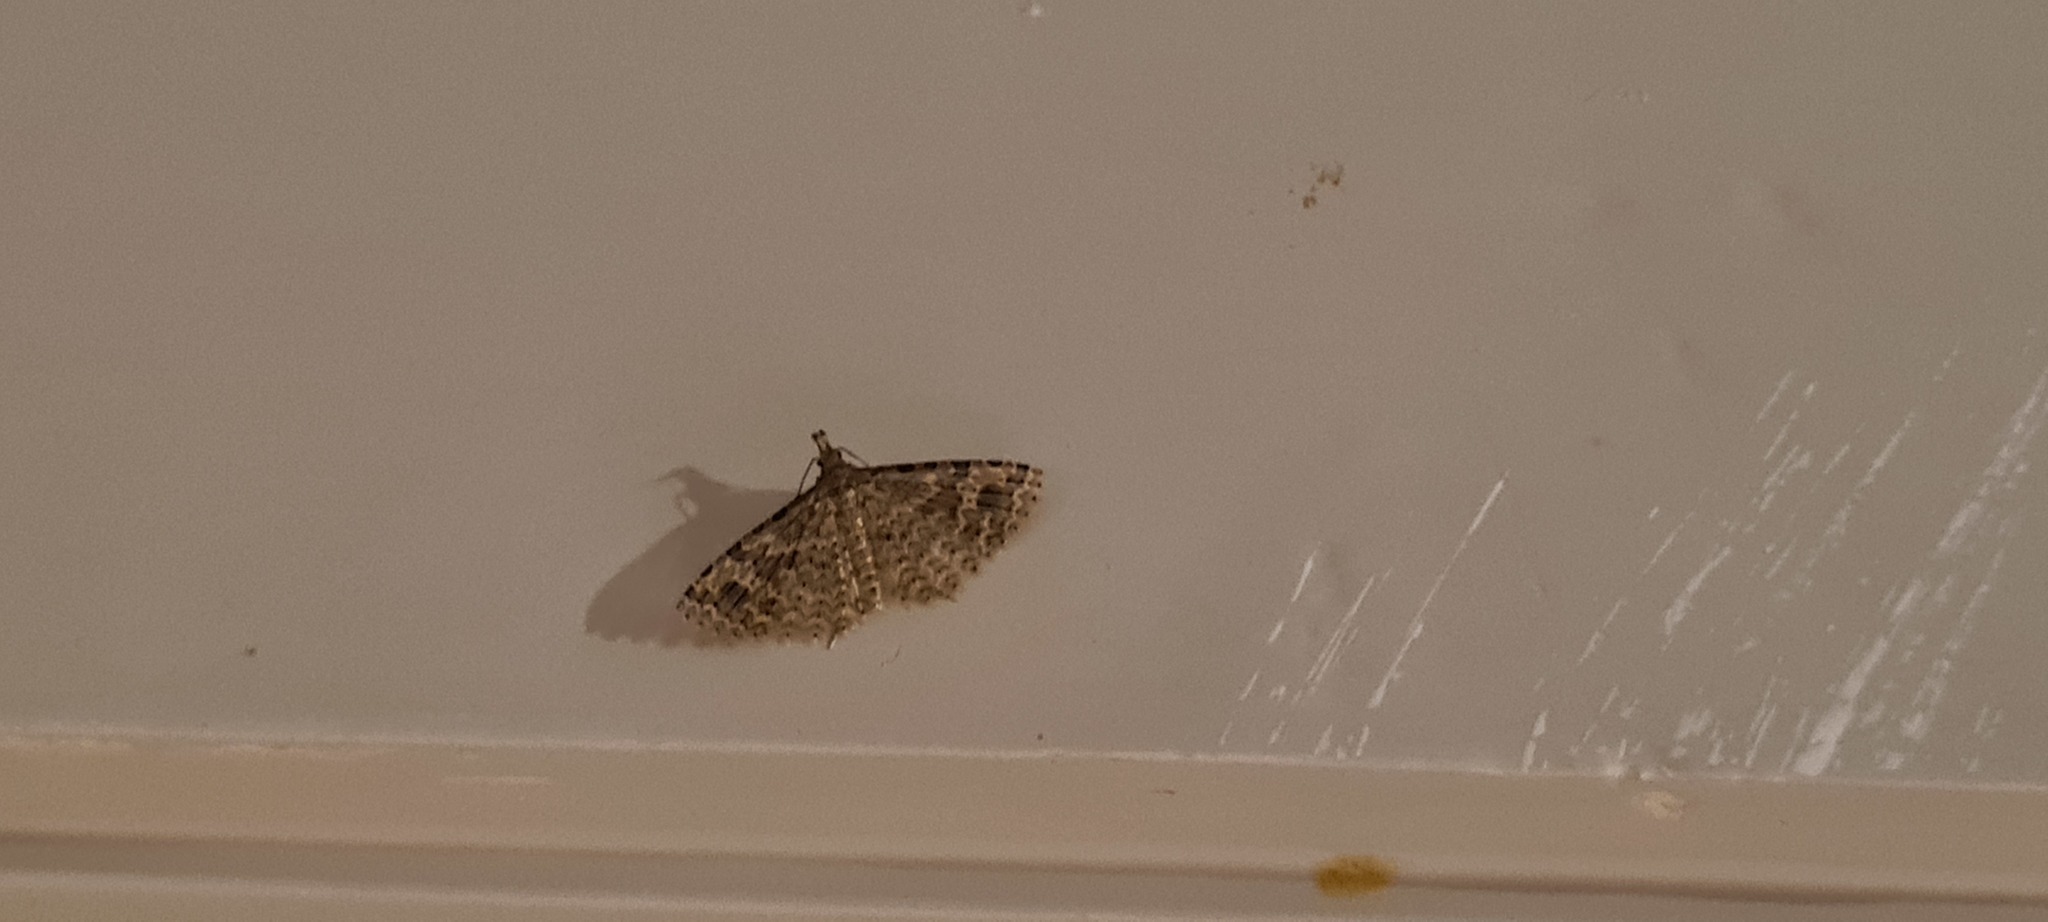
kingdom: Animalia
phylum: Arthropoda
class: Insecta
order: Lepidoptera
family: Alucitidae
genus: Alucita
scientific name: Alucita hexadactyla
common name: Twenty-plume moth
